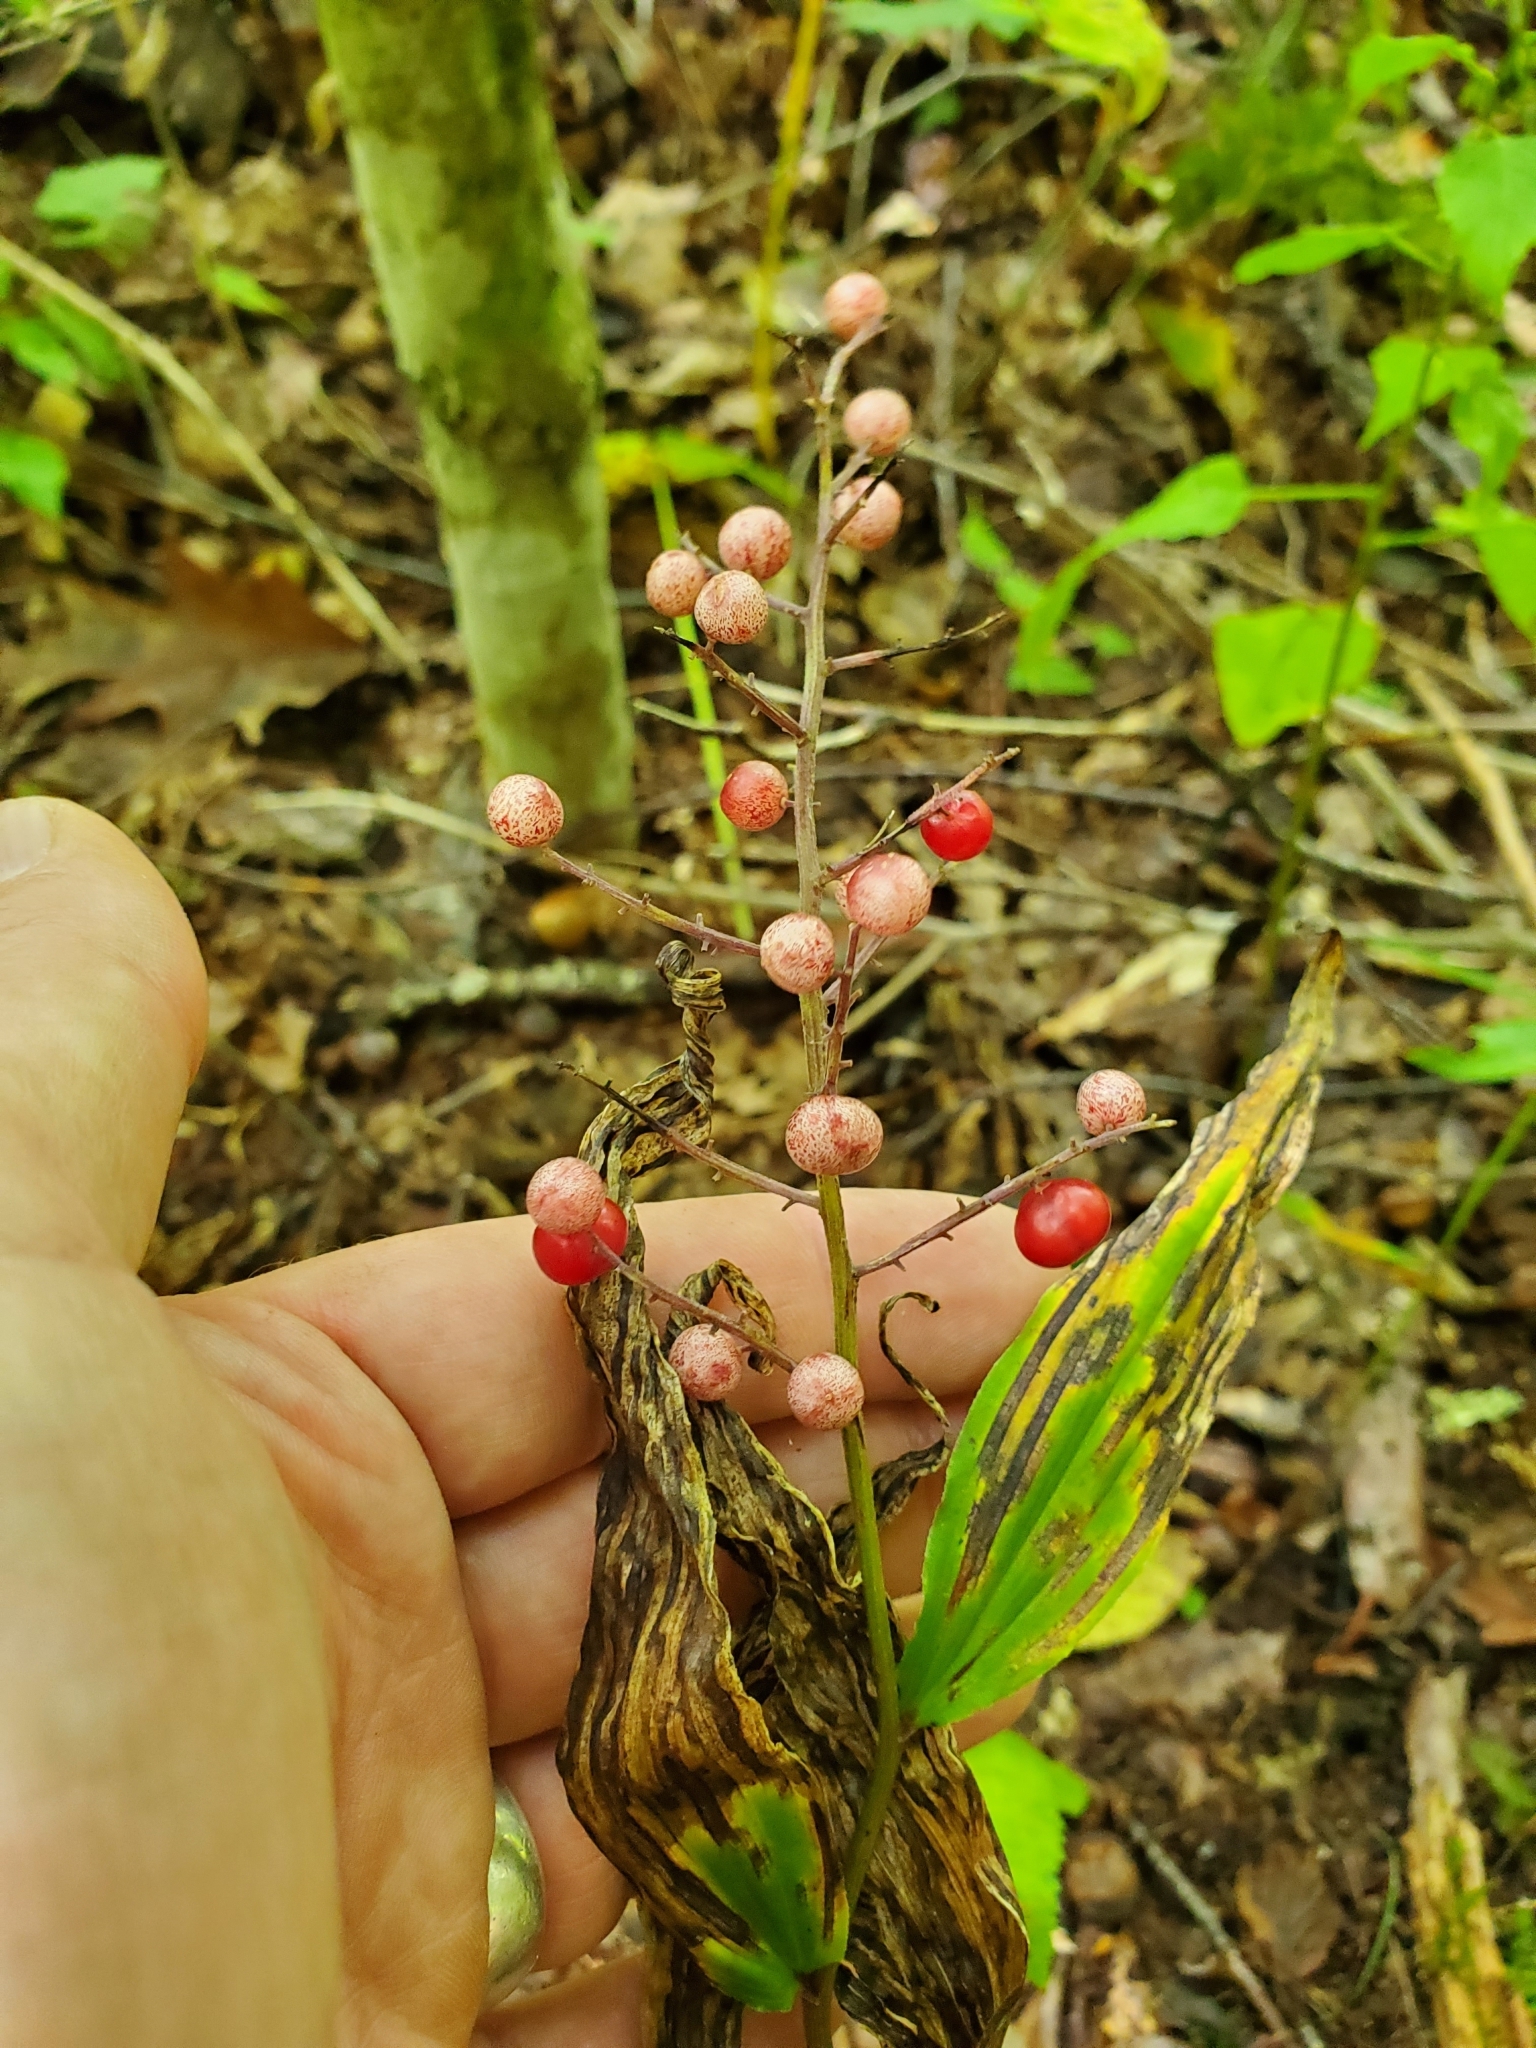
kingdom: Plantae
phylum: Tracheophyta
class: Liliopsida
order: Asparagales
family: Asparagaceae
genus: Maianthemum
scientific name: Maianthemum racemosum
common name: False spikenard
